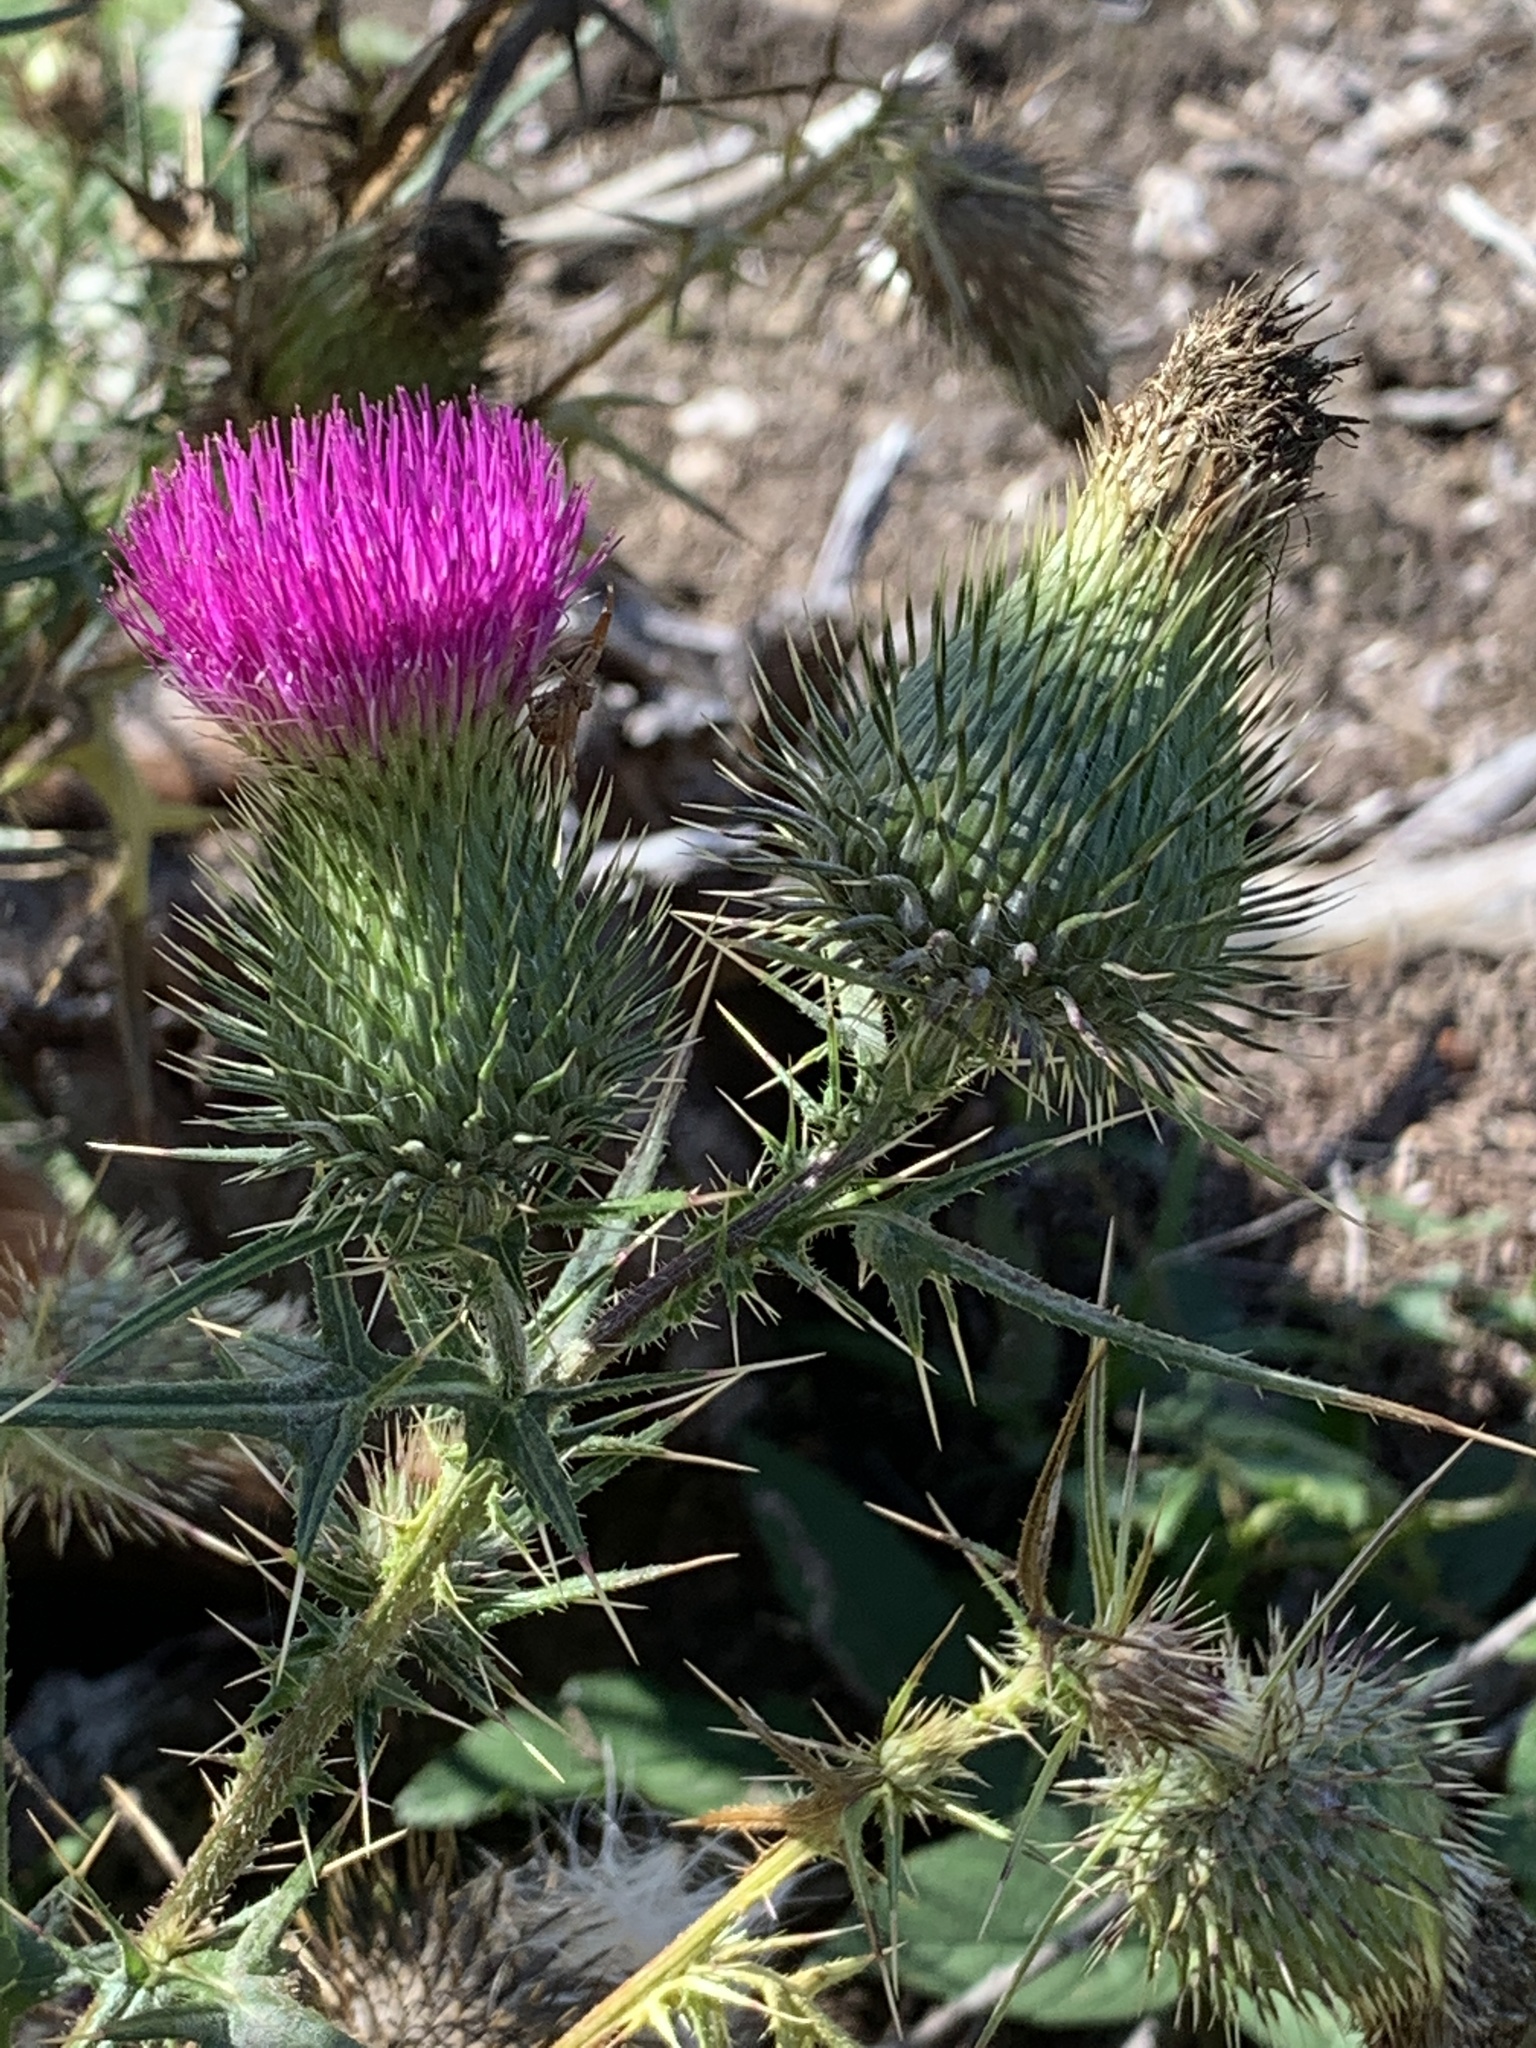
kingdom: Plantae
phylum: Tracheophyta
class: Magnoliopsida
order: Asterales
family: Asteraceae
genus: Cirsium
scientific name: Cirsium vulgare
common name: Bull thistle
